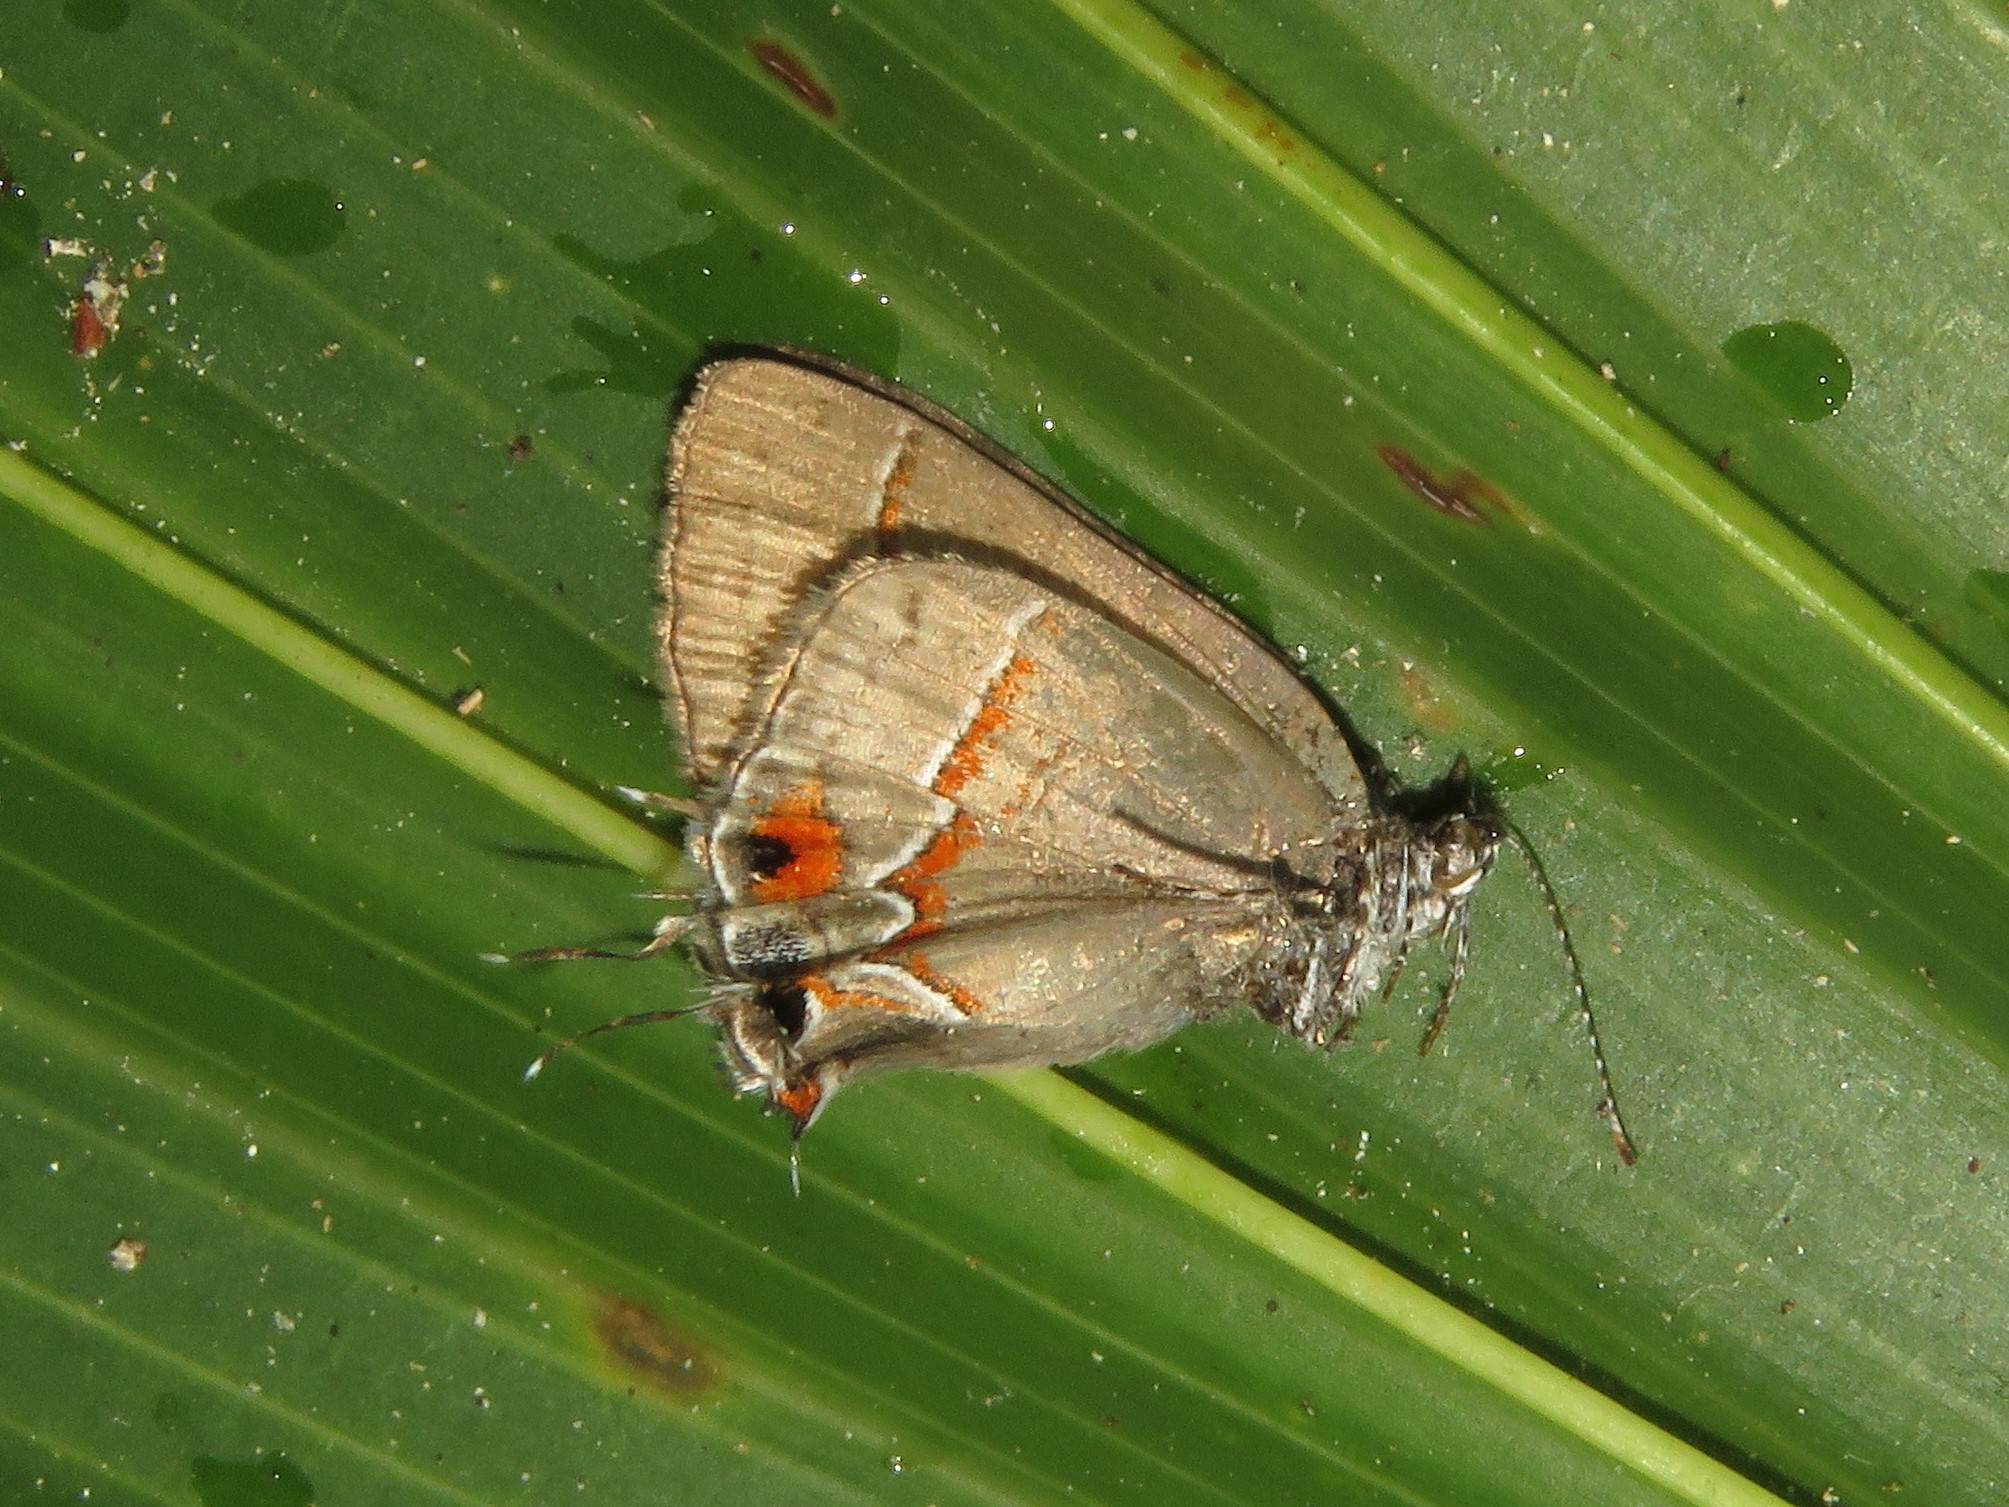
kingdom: Animalia
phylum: Arthropoda
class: Insecta
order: Lepidoptera
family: Lycaenidae
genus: Electrostrymon
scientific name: Electrostrymon endymion
